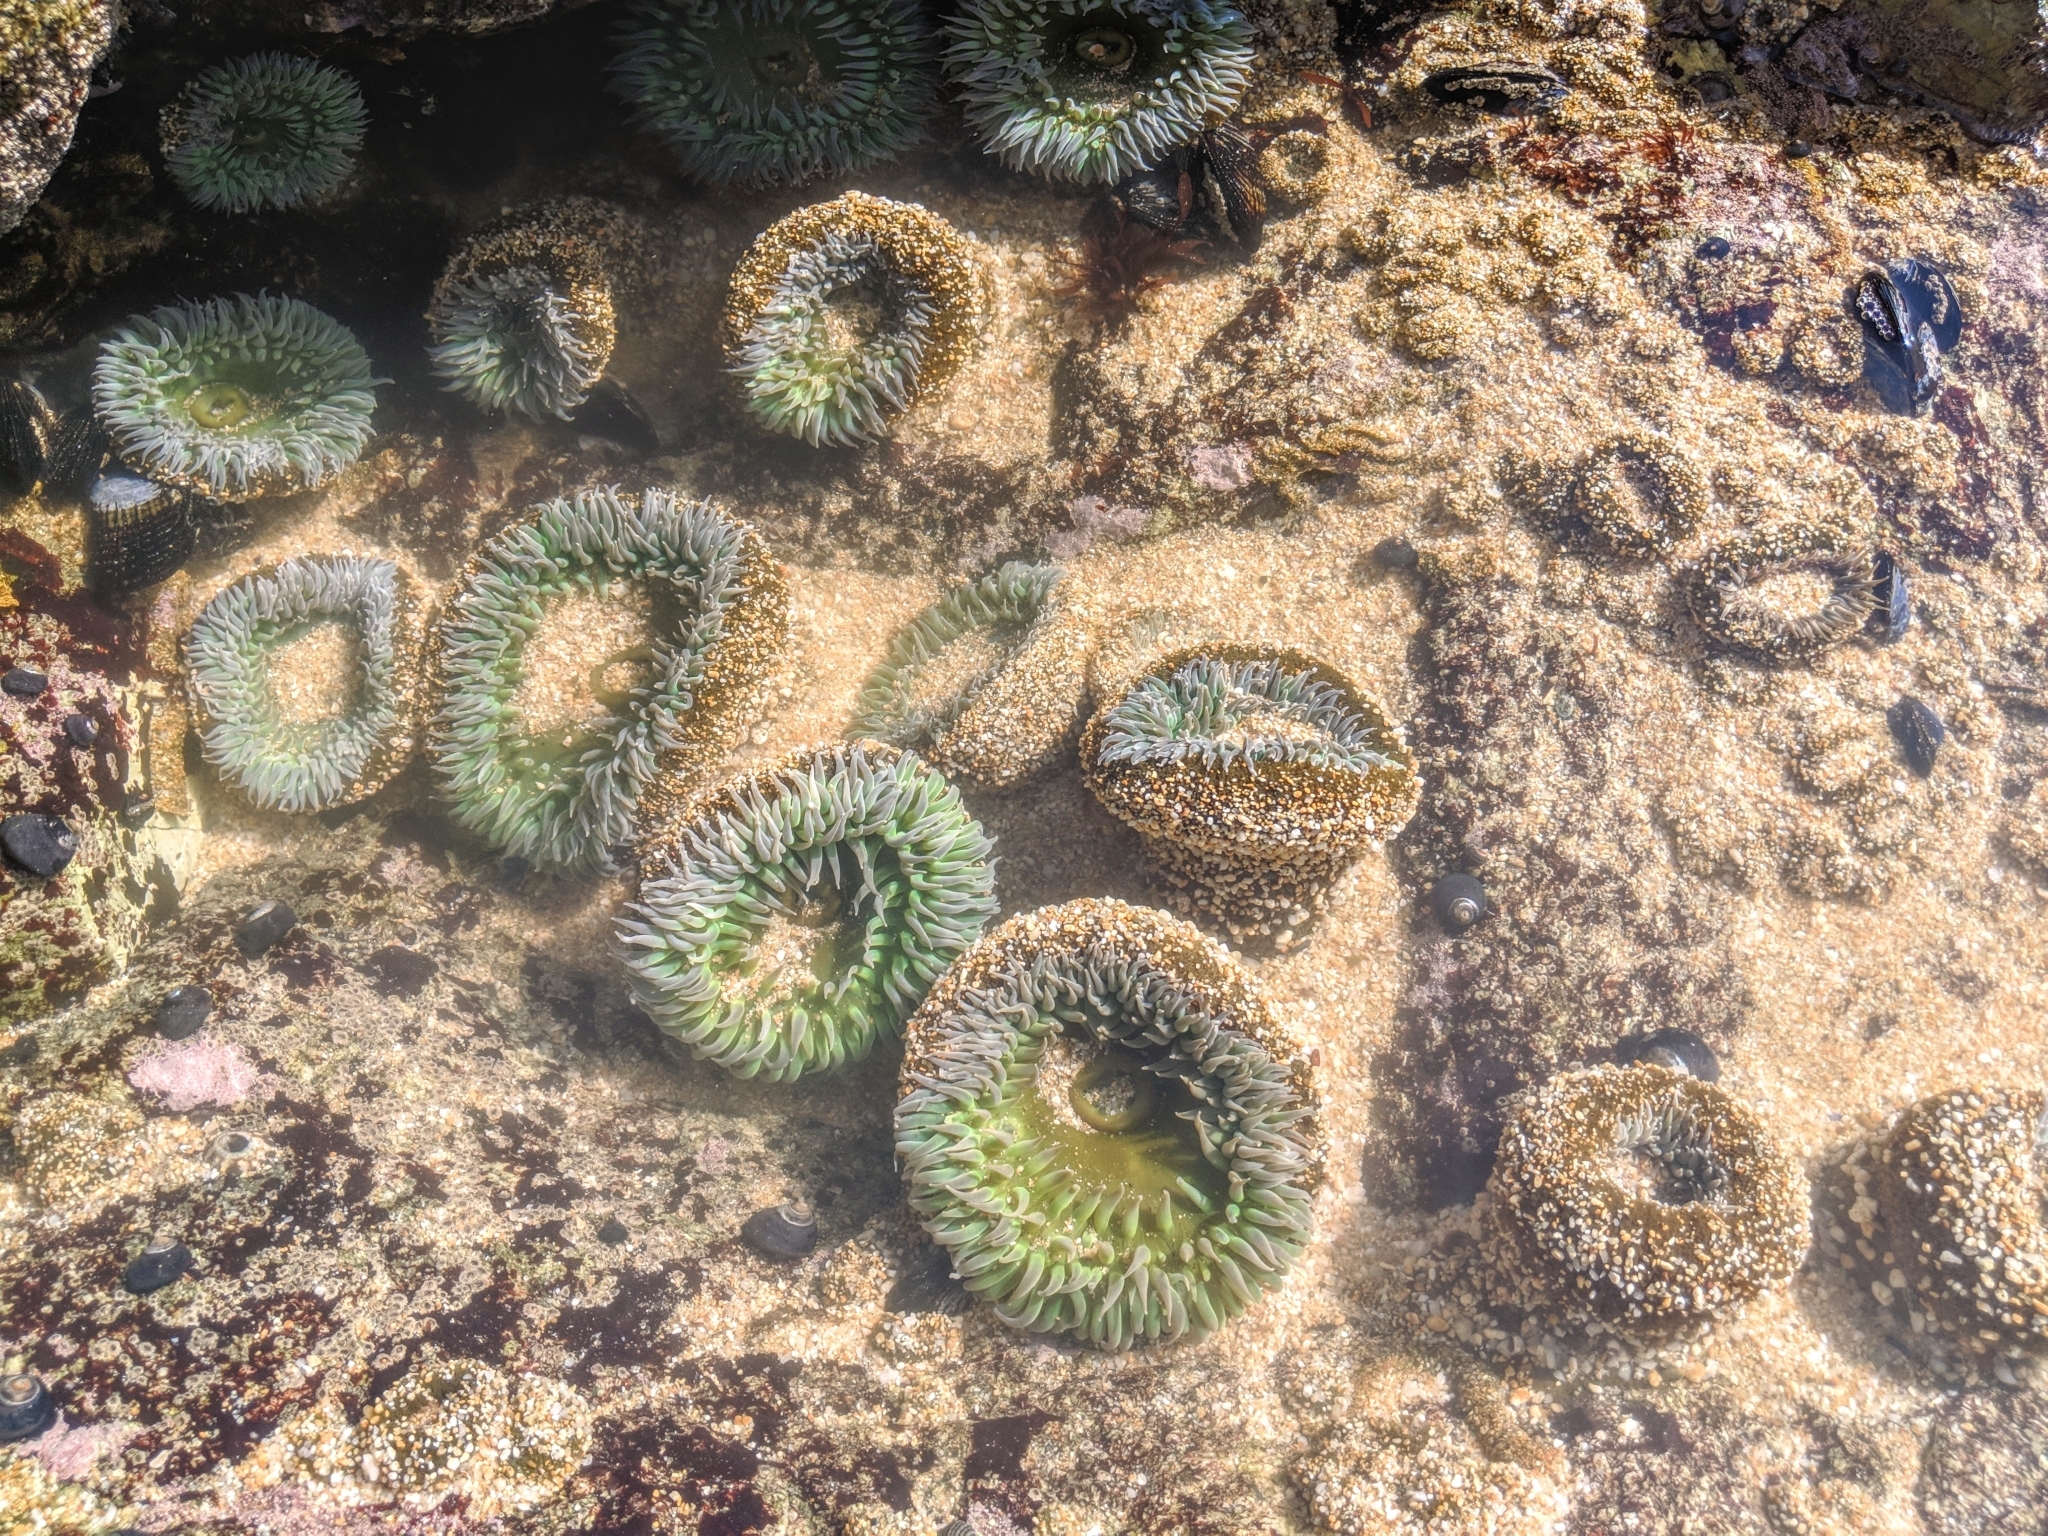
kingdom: Animalia
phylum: Cnidaria
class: Anthozoa
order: Actiniaria
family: Actiniidae
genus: Anthopleura
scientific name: Anthopleura xanthogrammica
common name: Giant green anemone
